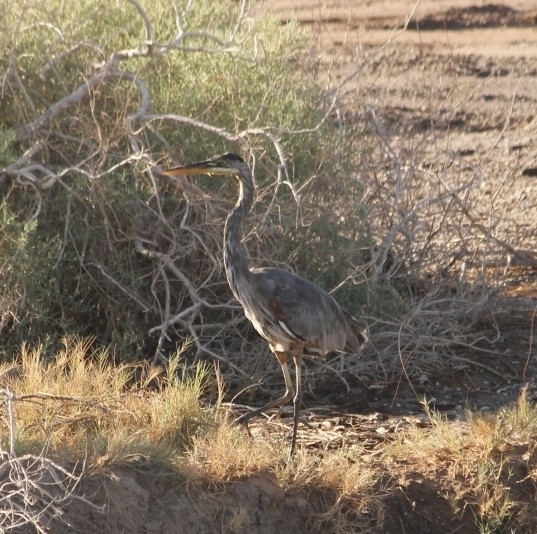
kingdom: Animalia
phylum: Chordata
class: Aves
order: Pelecaniformes
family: Ardeidae
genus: Ardea
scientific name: Ardea herodias
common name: Great blue heron
